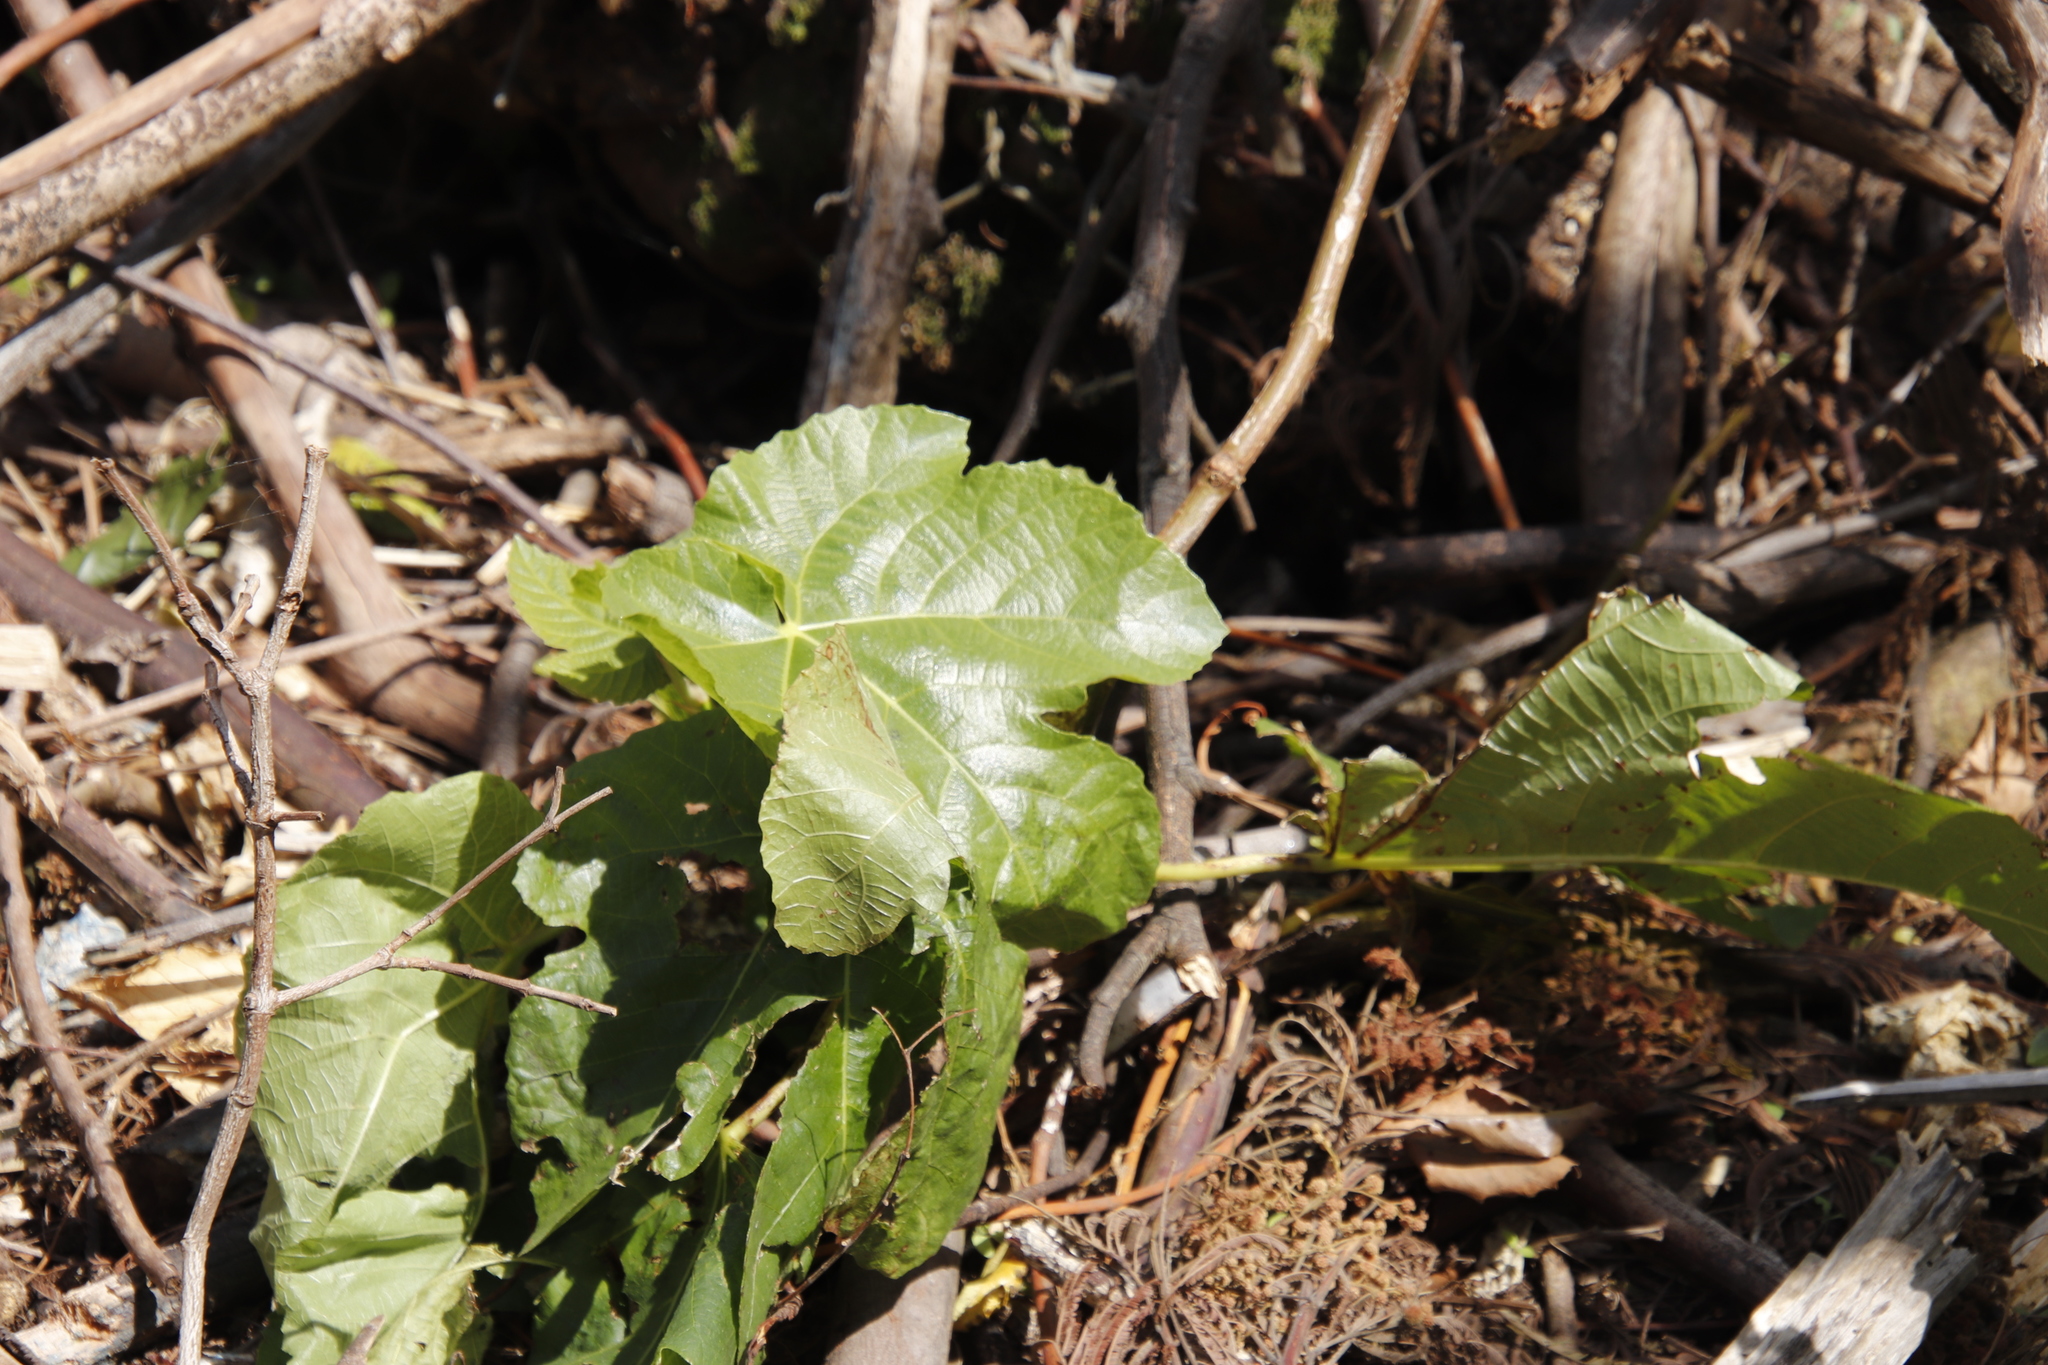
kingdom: Plantae
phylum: Tracheophyta
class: Magnoliopsida
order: Rosales
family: Moraceae
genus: Ficus
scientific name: Ficus carica
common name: Fig
